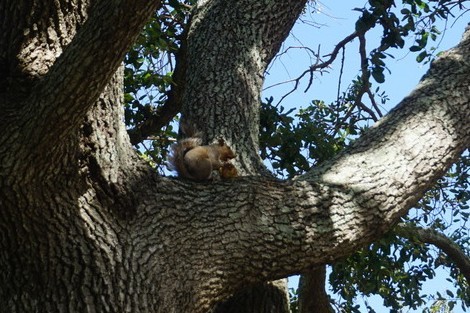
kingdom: Animalia
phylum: Chordata
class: Mammalia
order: Rodentia
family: Sciuridae
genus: Sciurus
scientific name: Sciurus carolinensis
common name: Eastern gray squirrel
